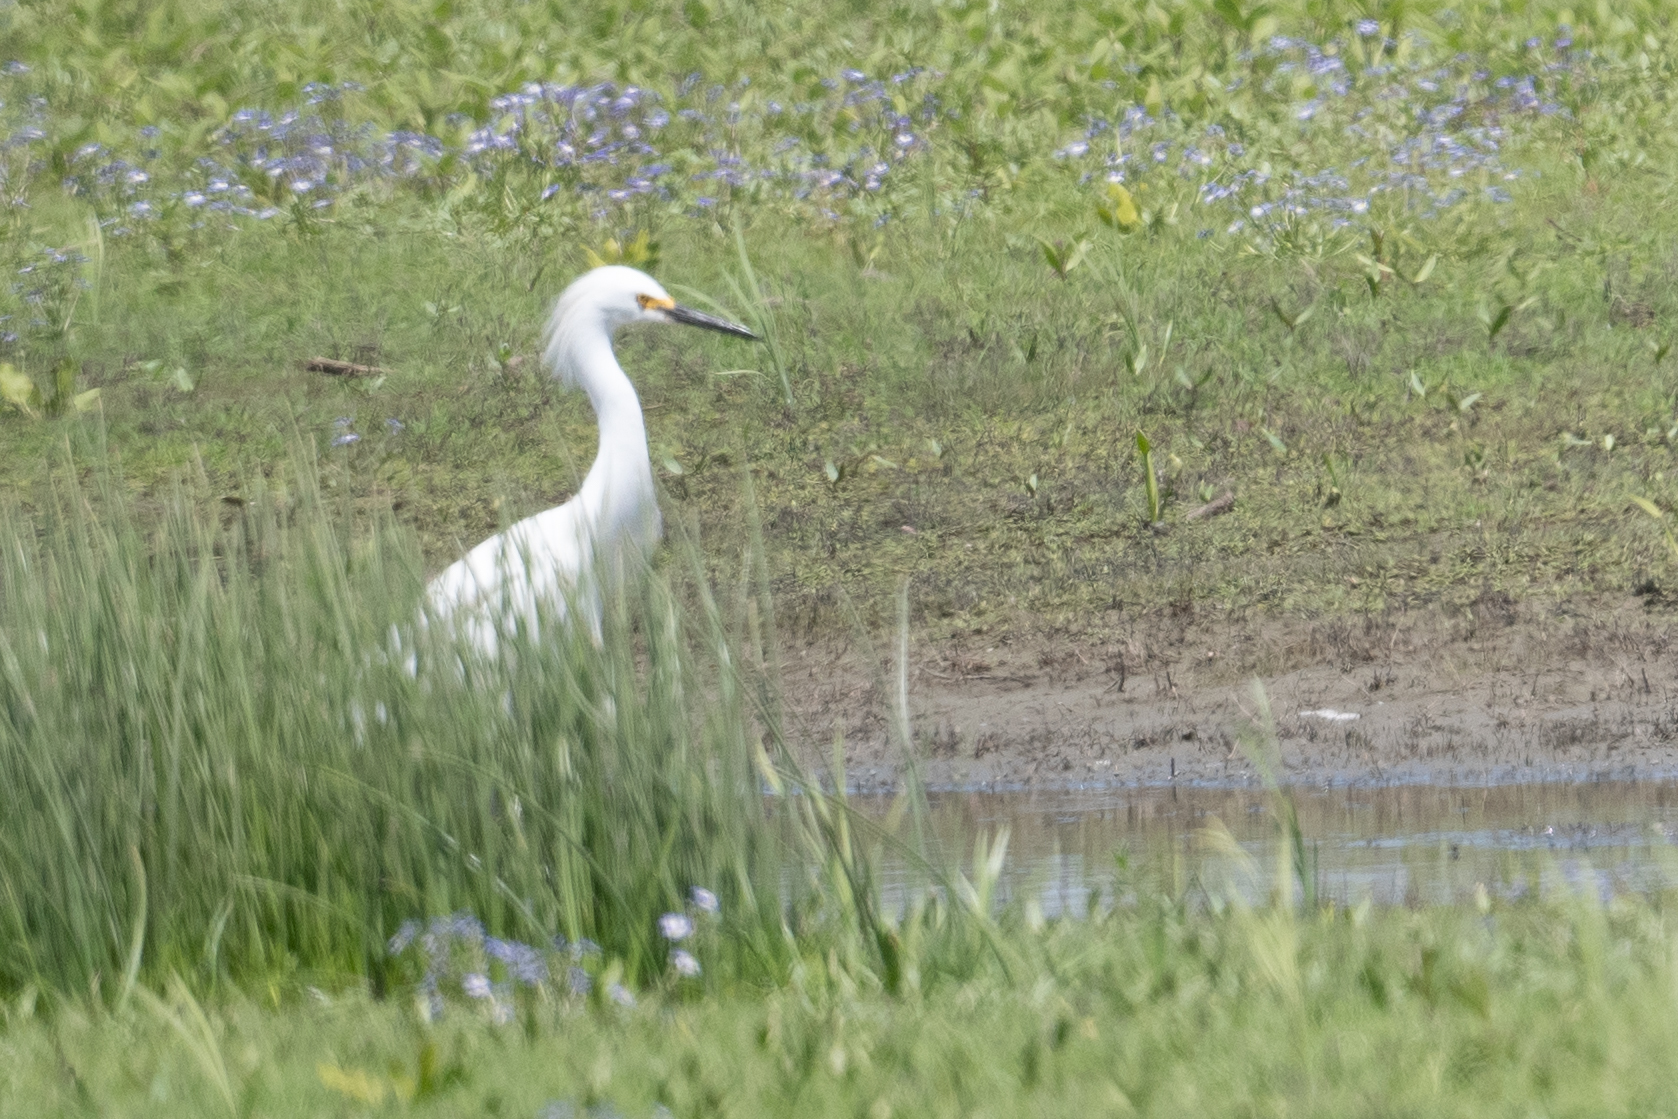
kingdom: Animalia
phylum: Chordata
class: Aves
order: Pelecaniformes
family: Ardeidae
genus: Egretta
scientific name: Egretta thula
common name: Snowy egret
